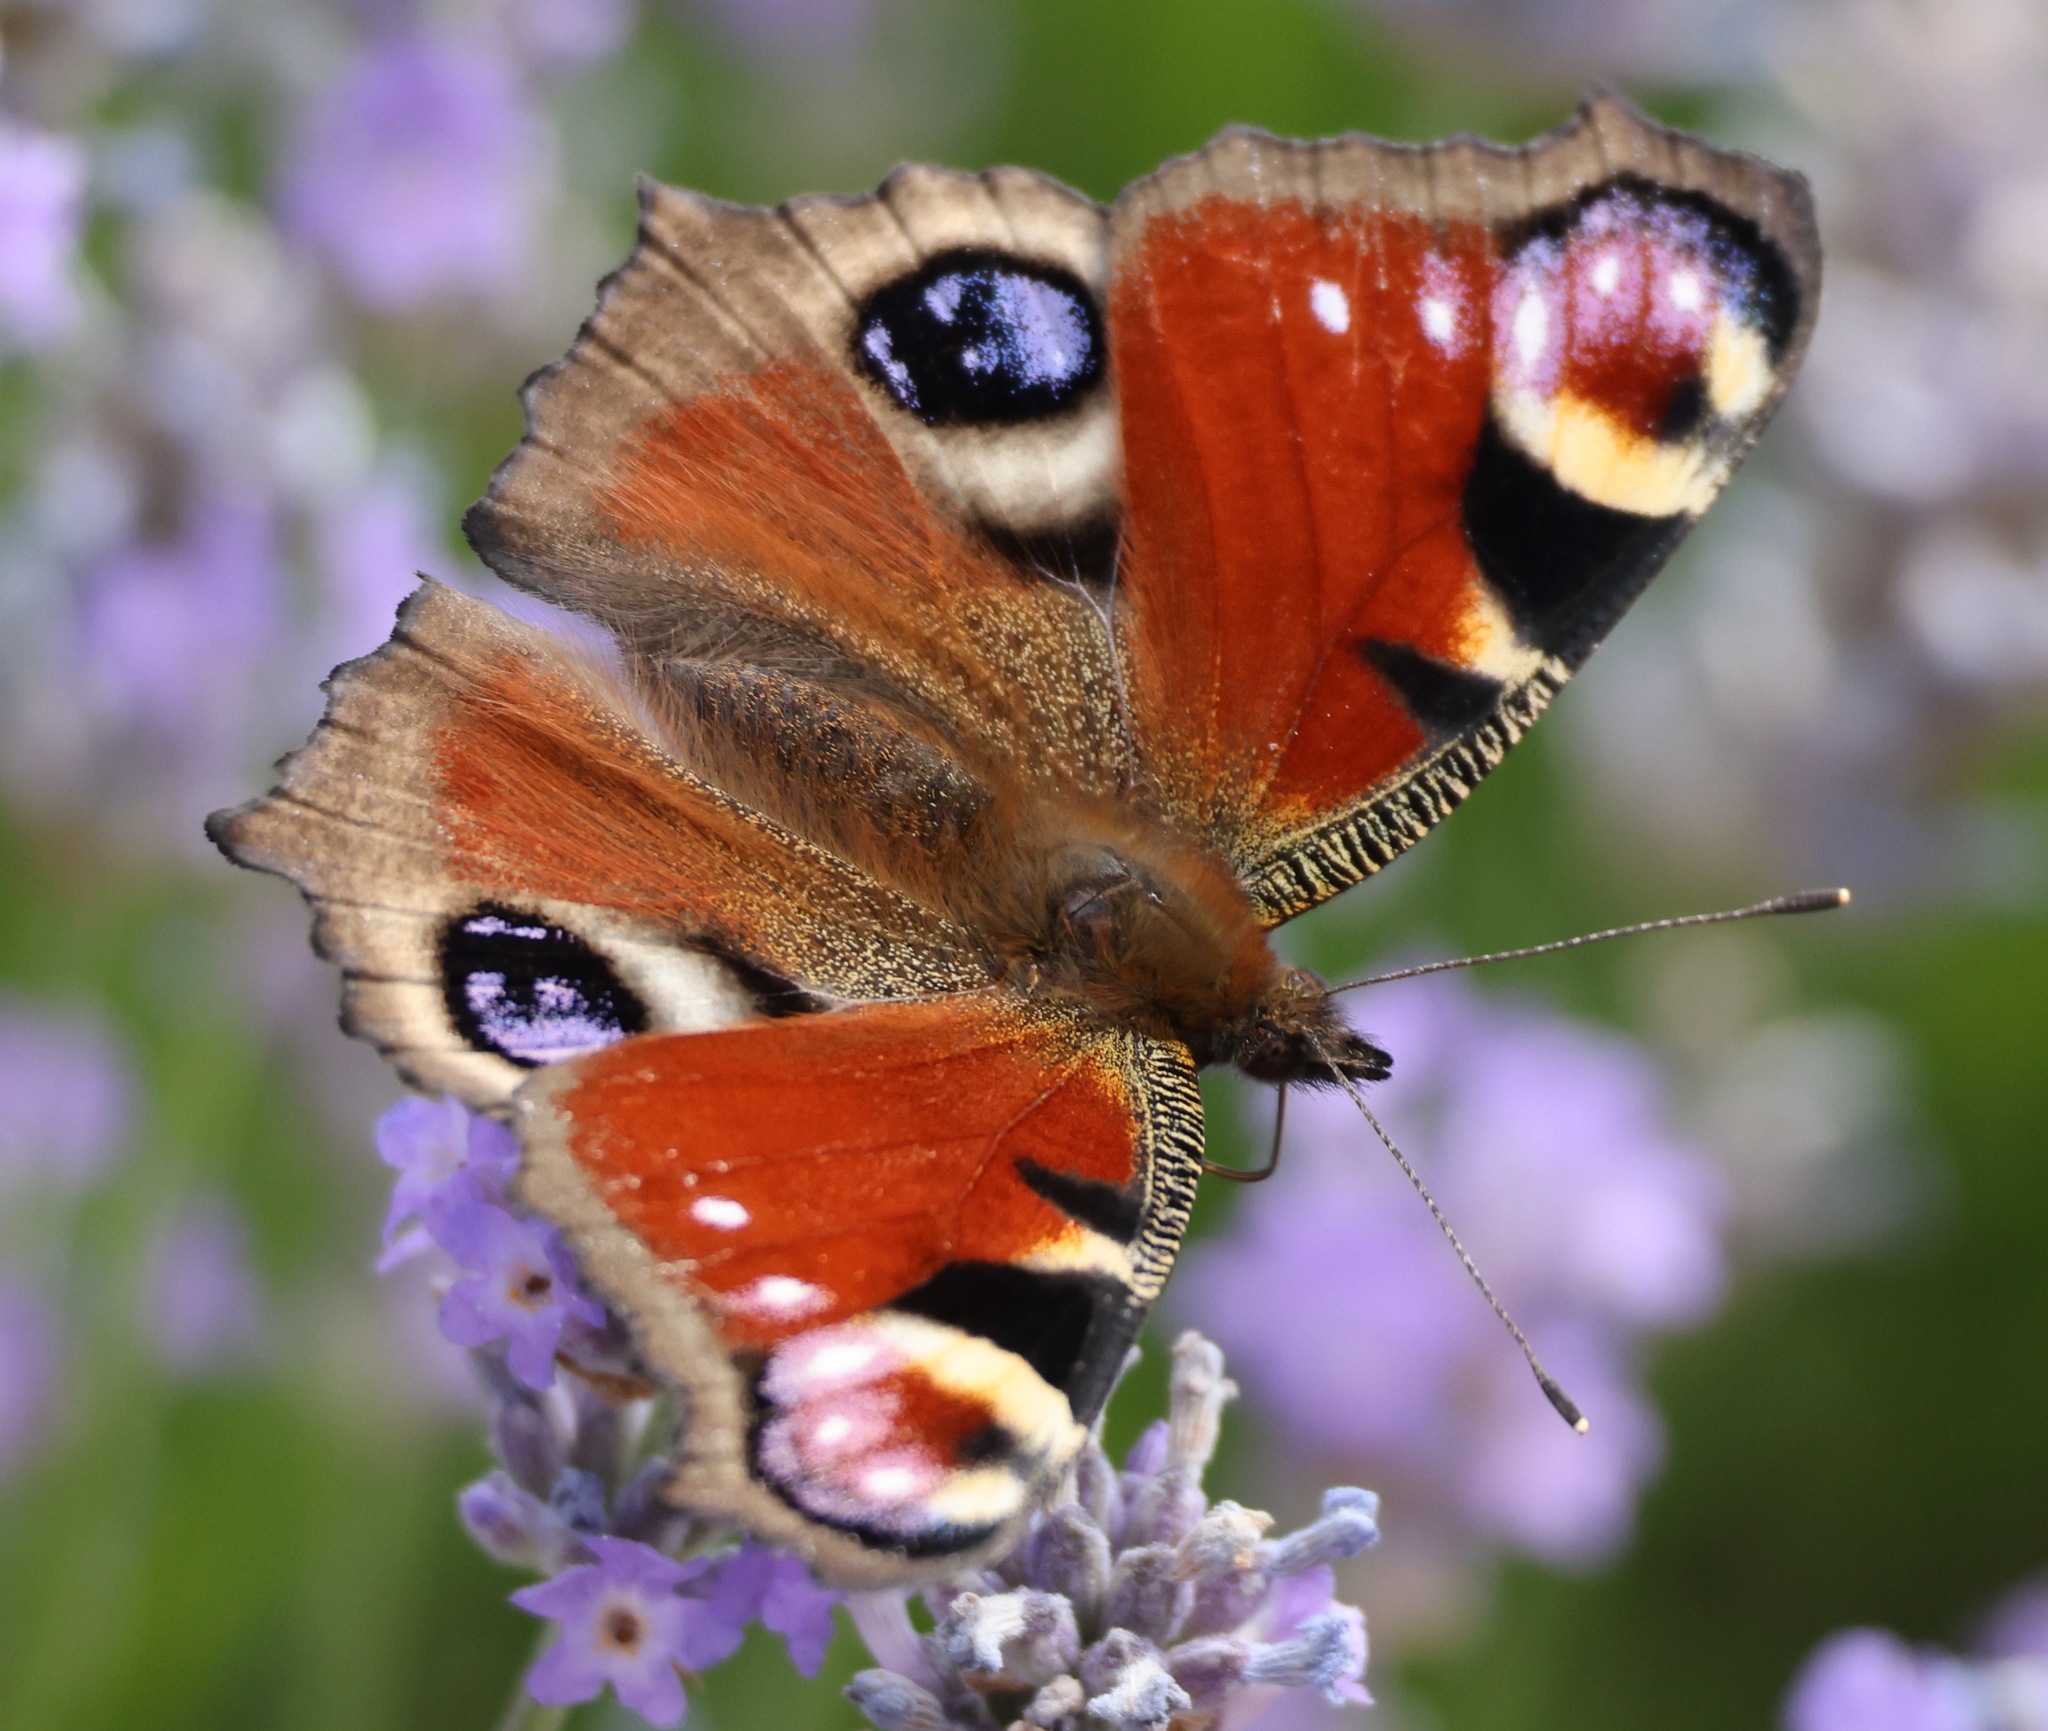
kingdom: Animalia
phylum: Arthropoda
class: Insecta
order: Lepidoptera
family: Nymphalidae
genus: Aglais
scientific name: Aglais io
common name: Peacock
